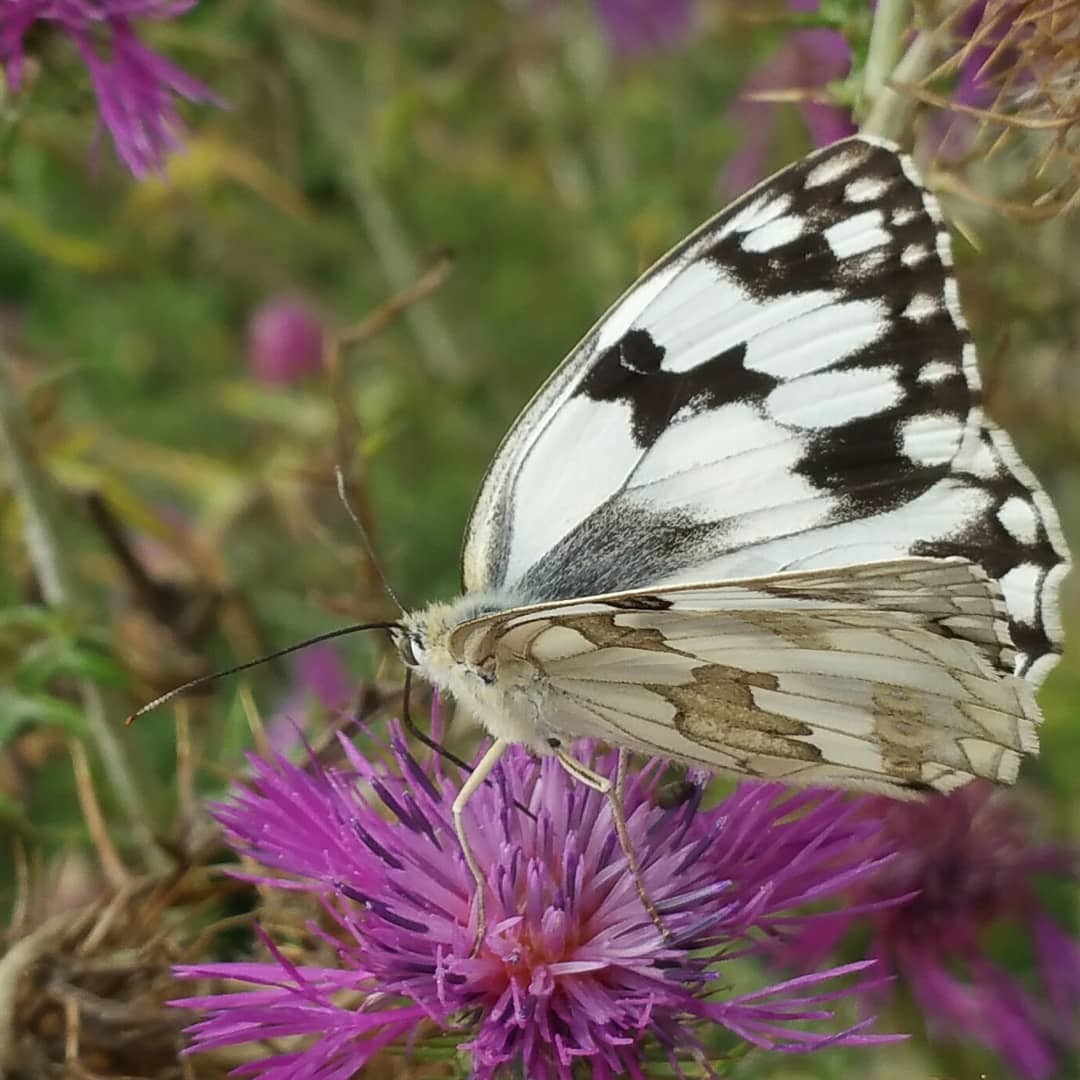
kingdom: Animalia
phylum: Arthropoda
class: Insecta
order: Lepidoptera
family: Nymphalidae
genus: Melanargia
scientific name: Melanargia lachesis
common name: Iberian marbled white
